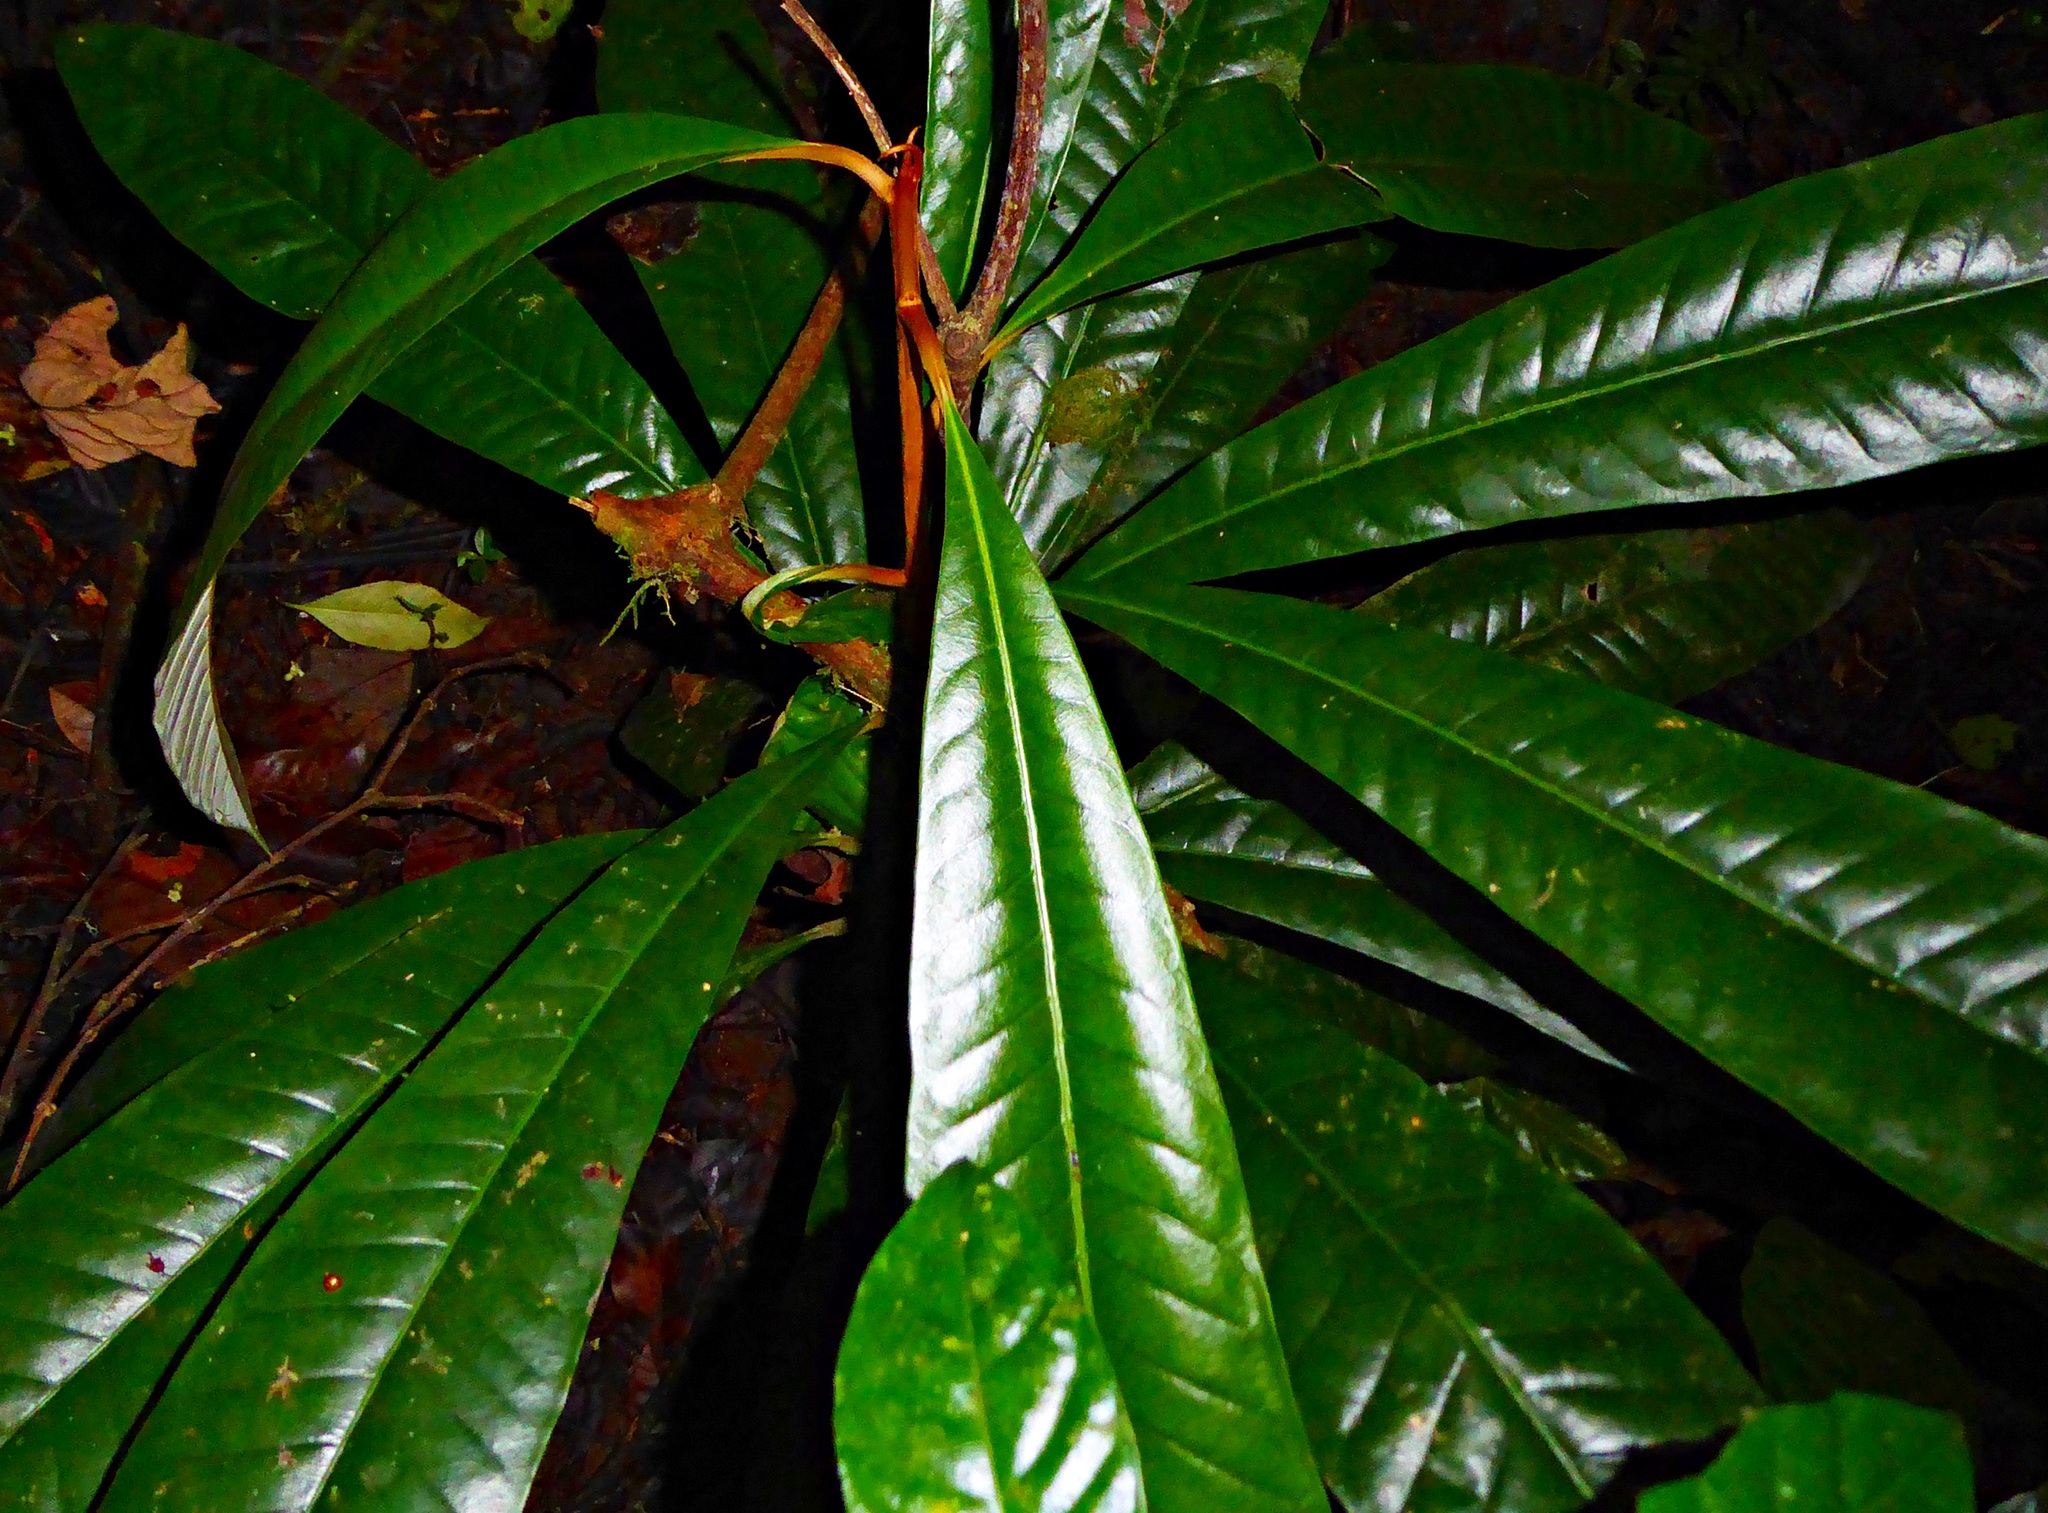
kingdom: Plantae
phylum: Tracheophyta
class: Magnoliopsida
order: Ericales
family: Sapotaceae
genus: Gambeya
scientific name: Gambeya africana
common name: African star apple
